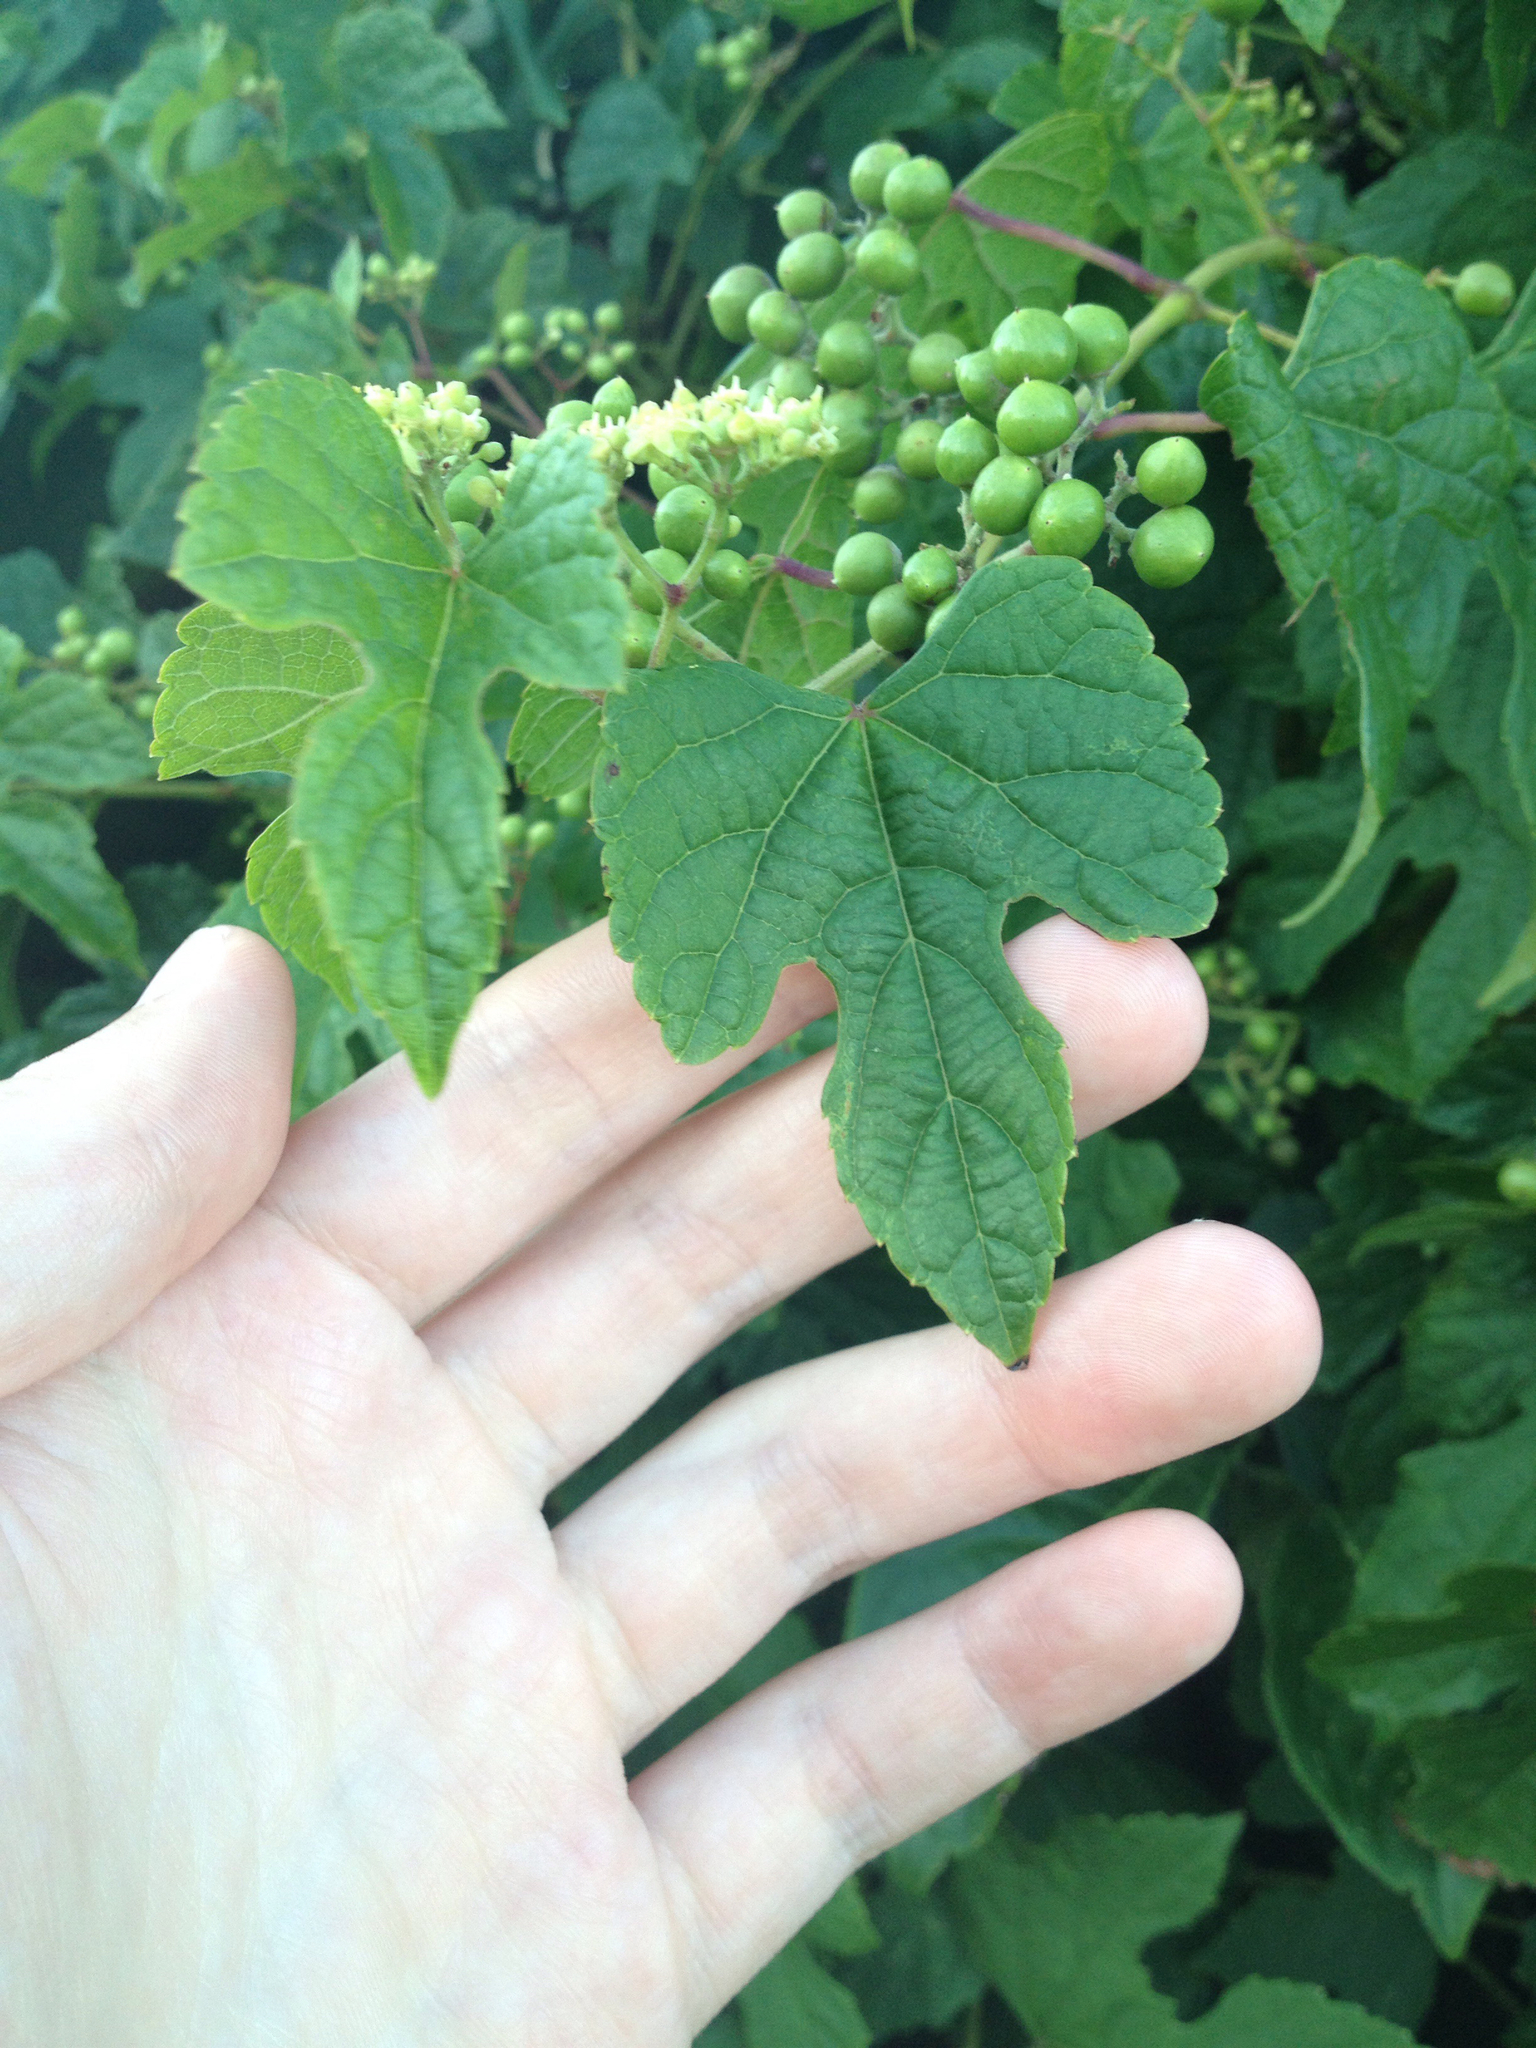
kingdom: Plantae
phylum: Tracheophyta
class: Magnoliopsida
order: Vitales
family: Vitaceae
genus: Ampelopsis
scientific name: Ampelopsis glandulosa
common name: Amur peppervine
